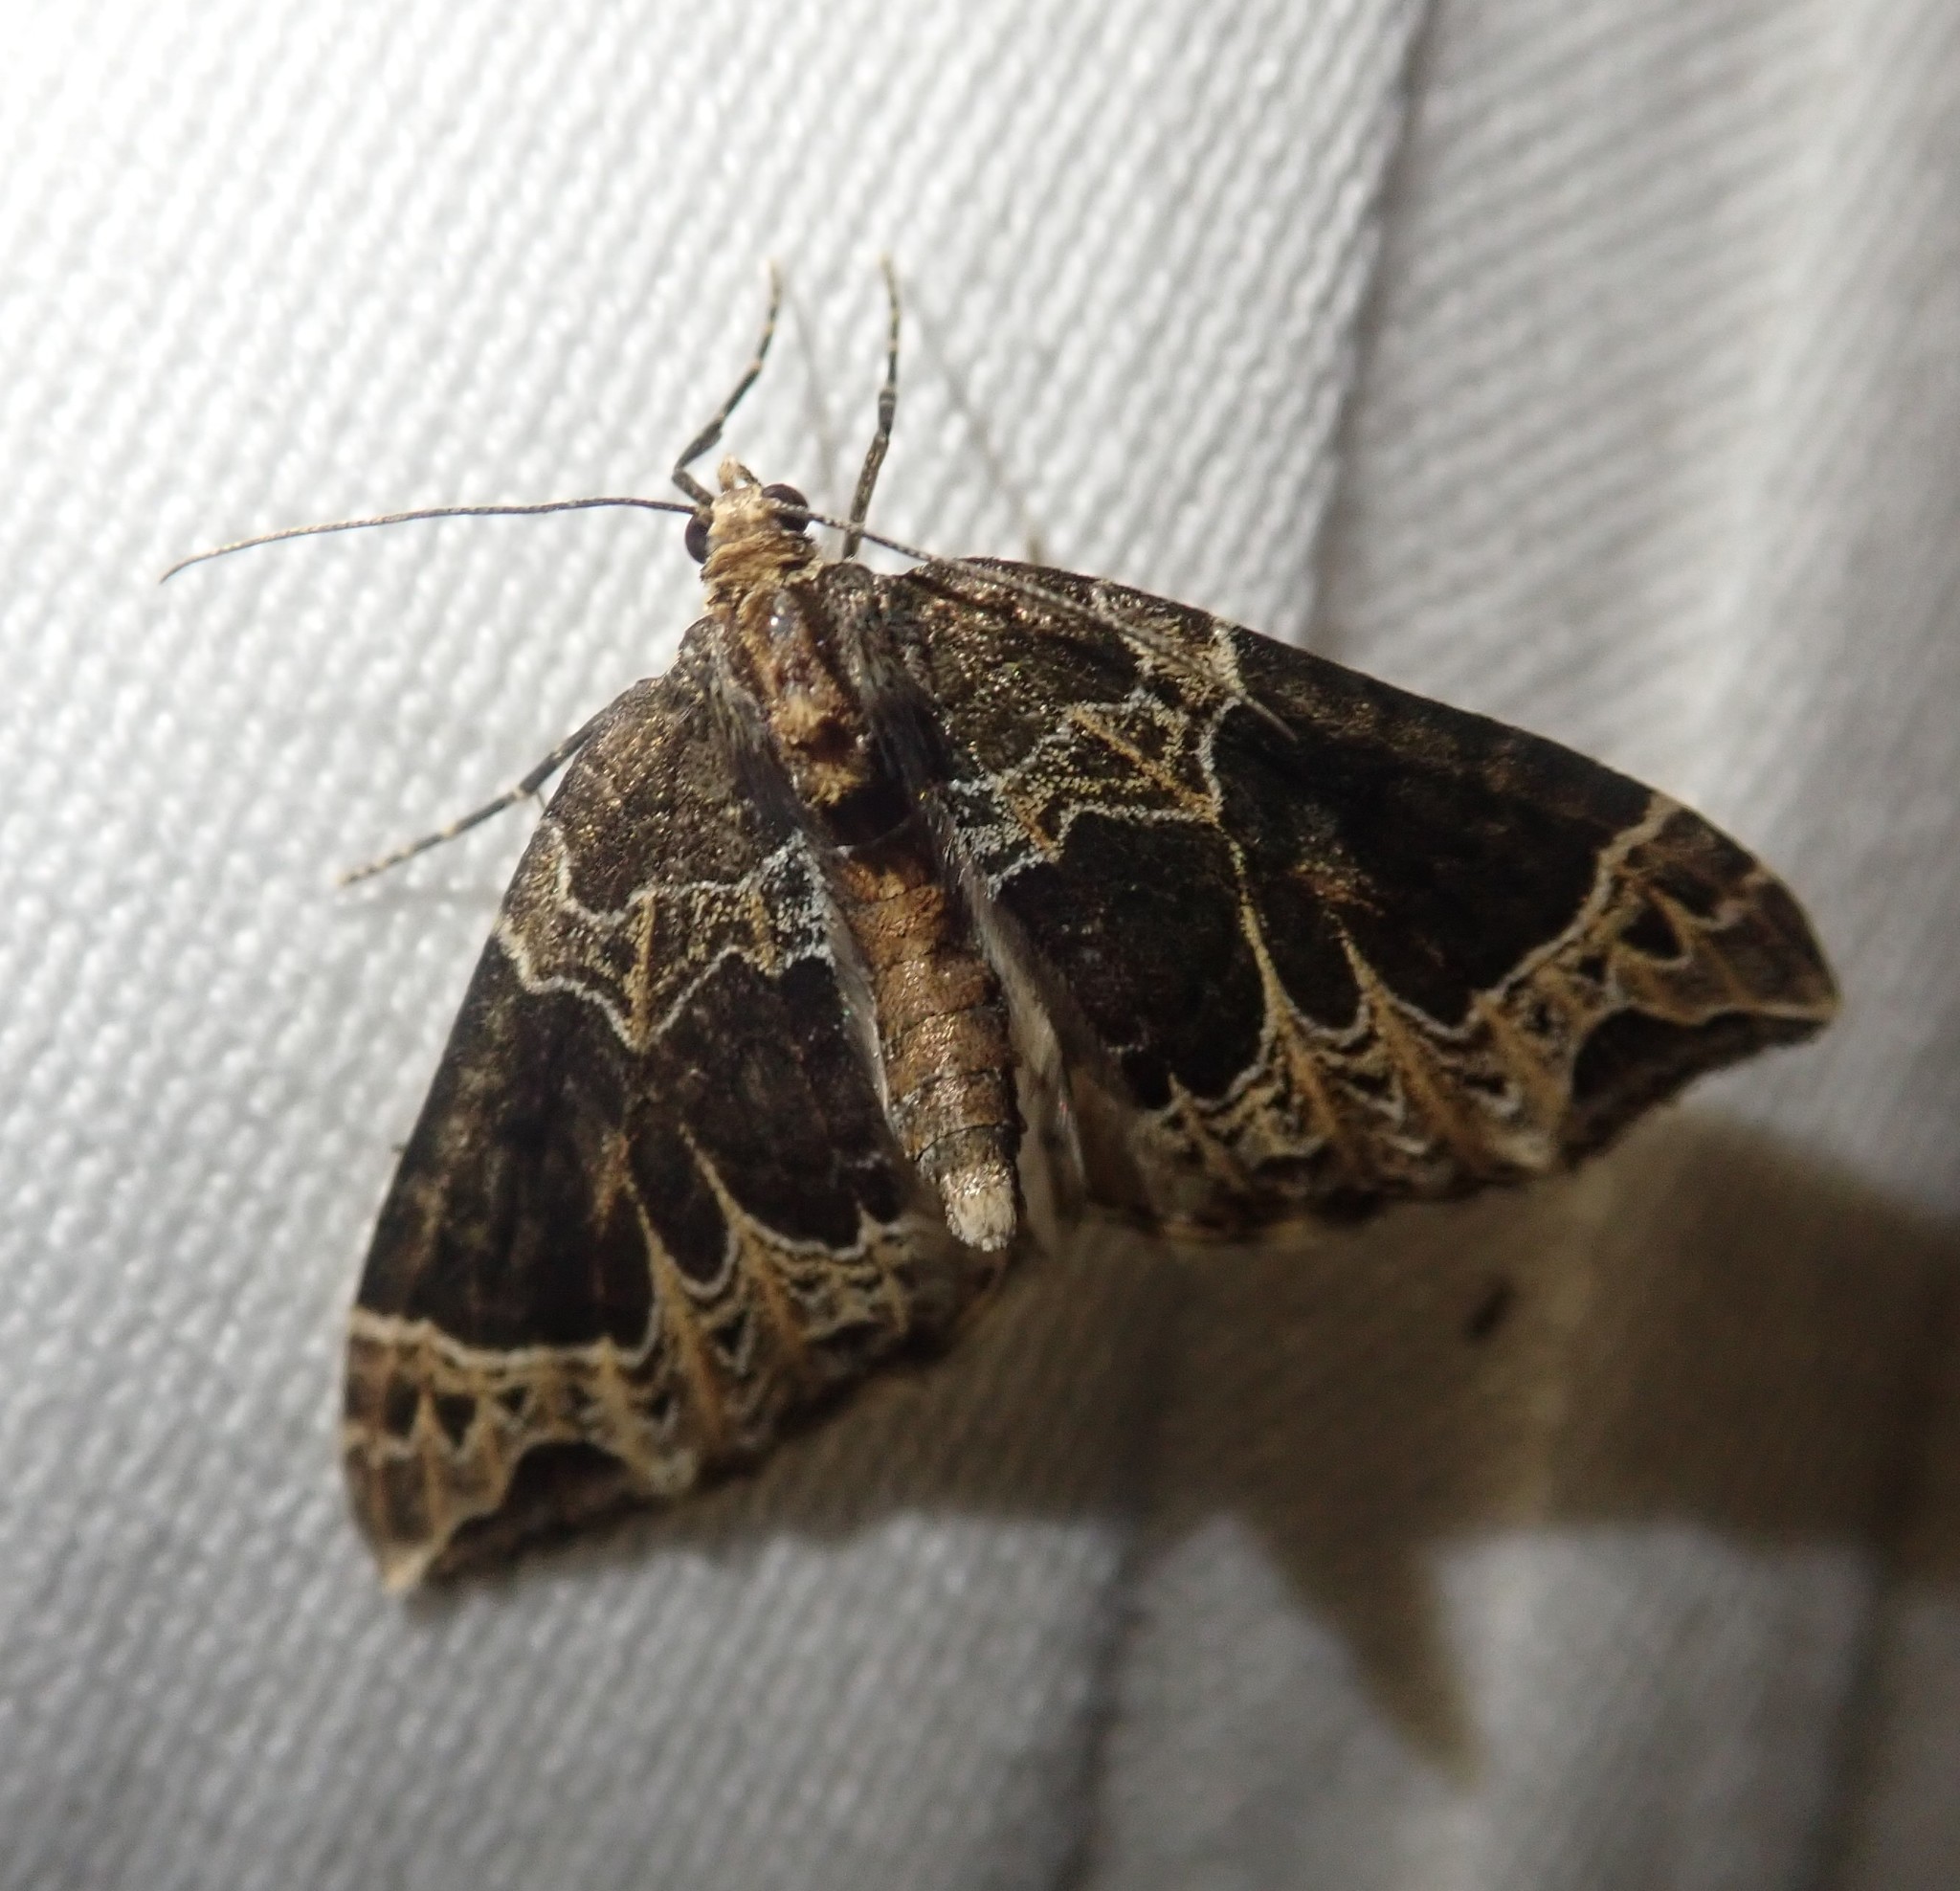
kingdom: Animalia
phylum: Arthropoda
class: Insecta
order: Lepidoptera
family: Geometridae
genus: Ecliptopera
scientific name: Ecliptopera silaceata
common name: Small phoenix
